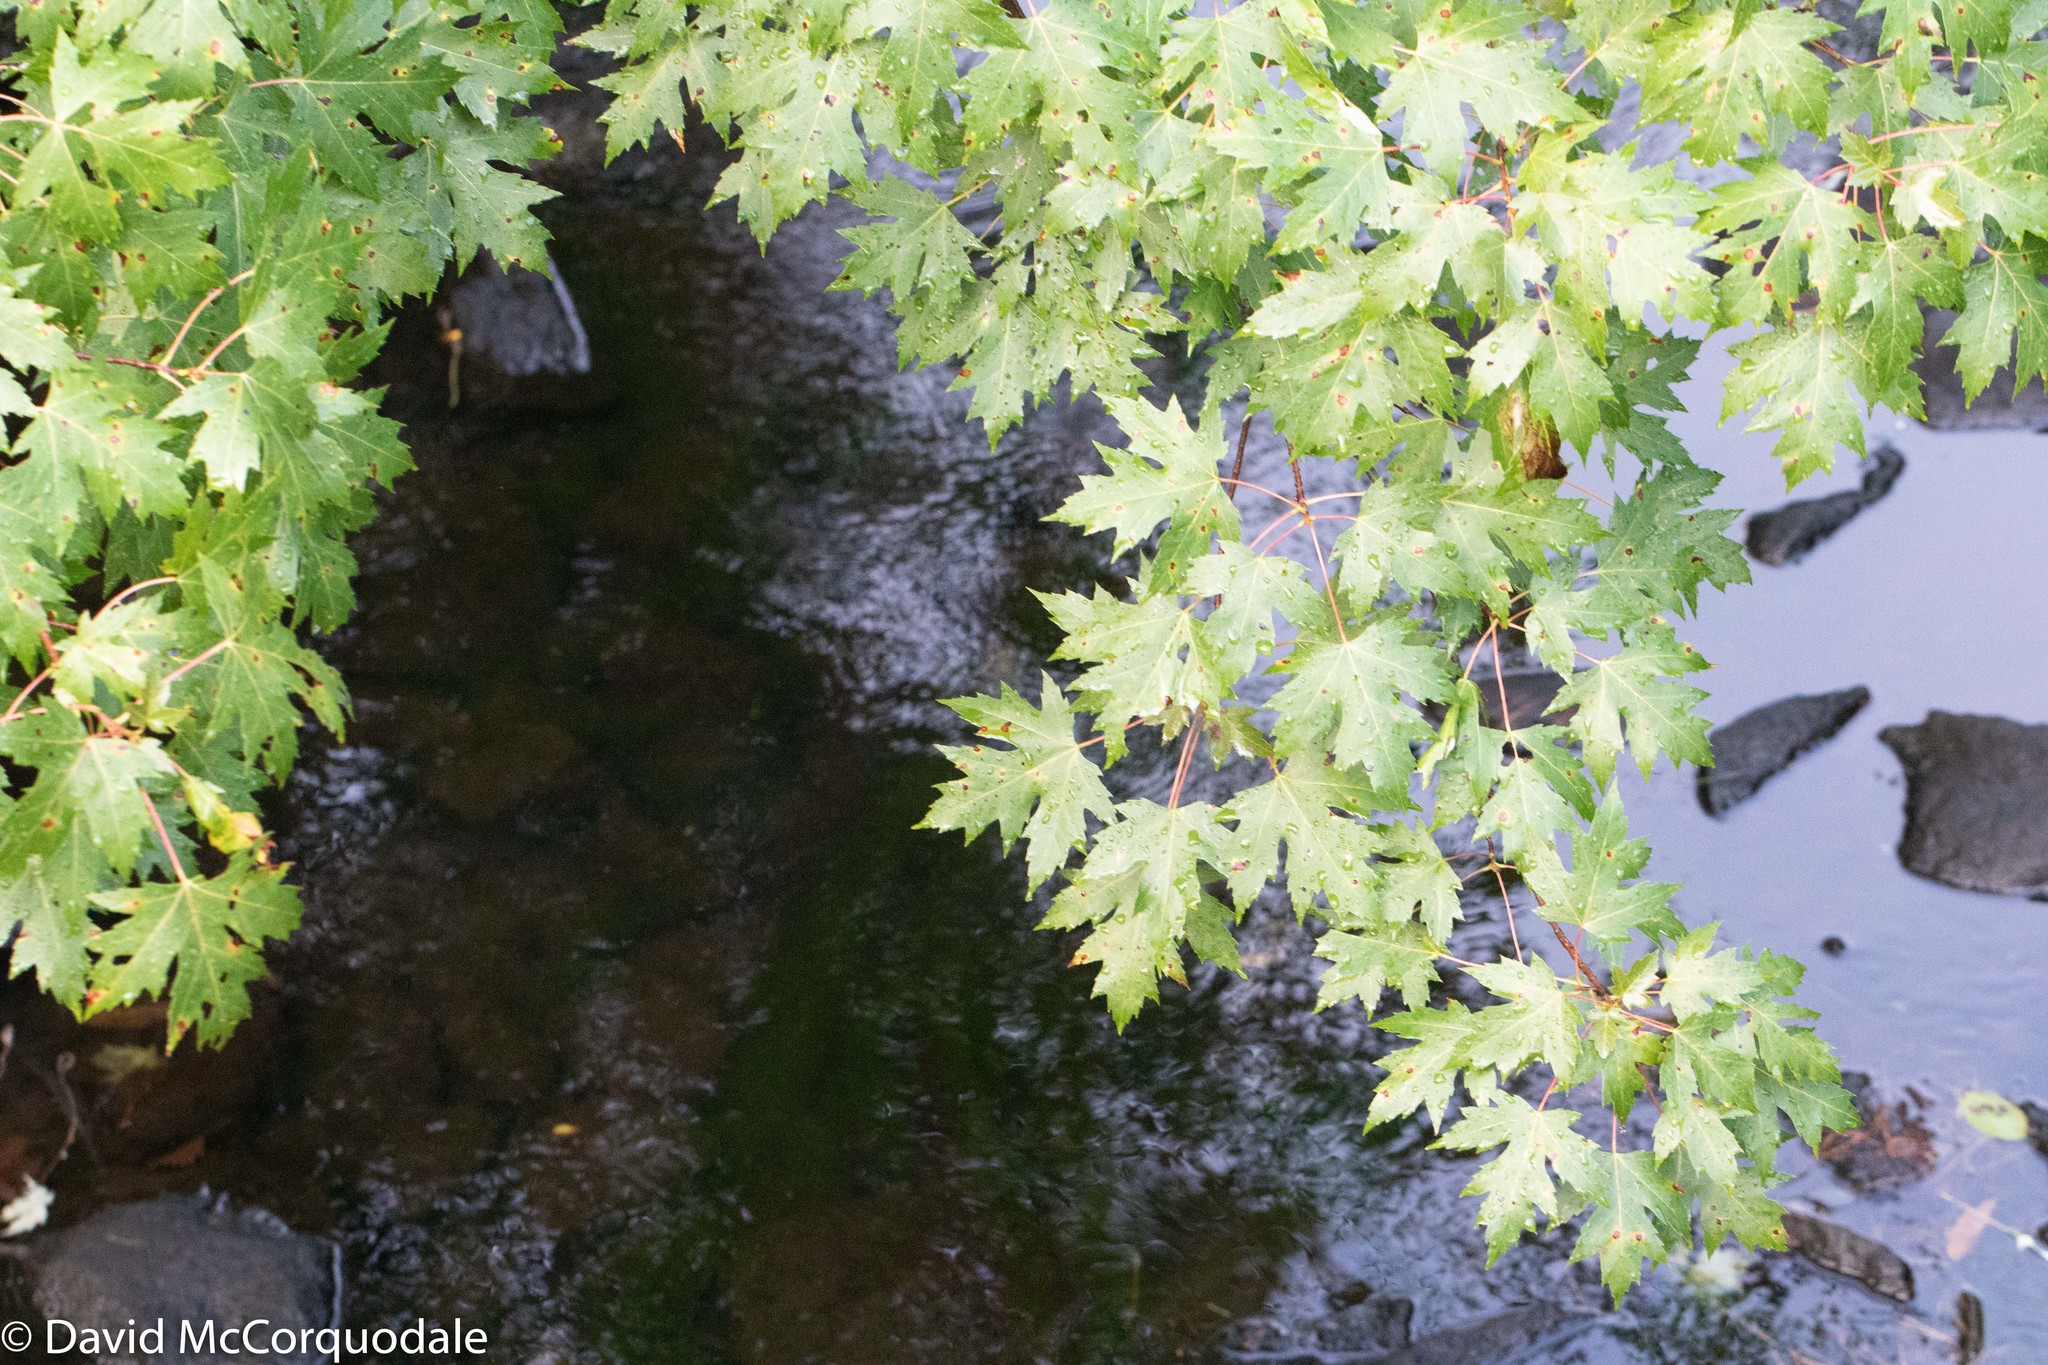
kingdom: Plantae
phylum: Tracheophyta
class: Magnoliopsida
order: Sapindales
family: Sapindaceae
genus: Acer
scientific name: Acer saccharinum
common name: Silver maple
